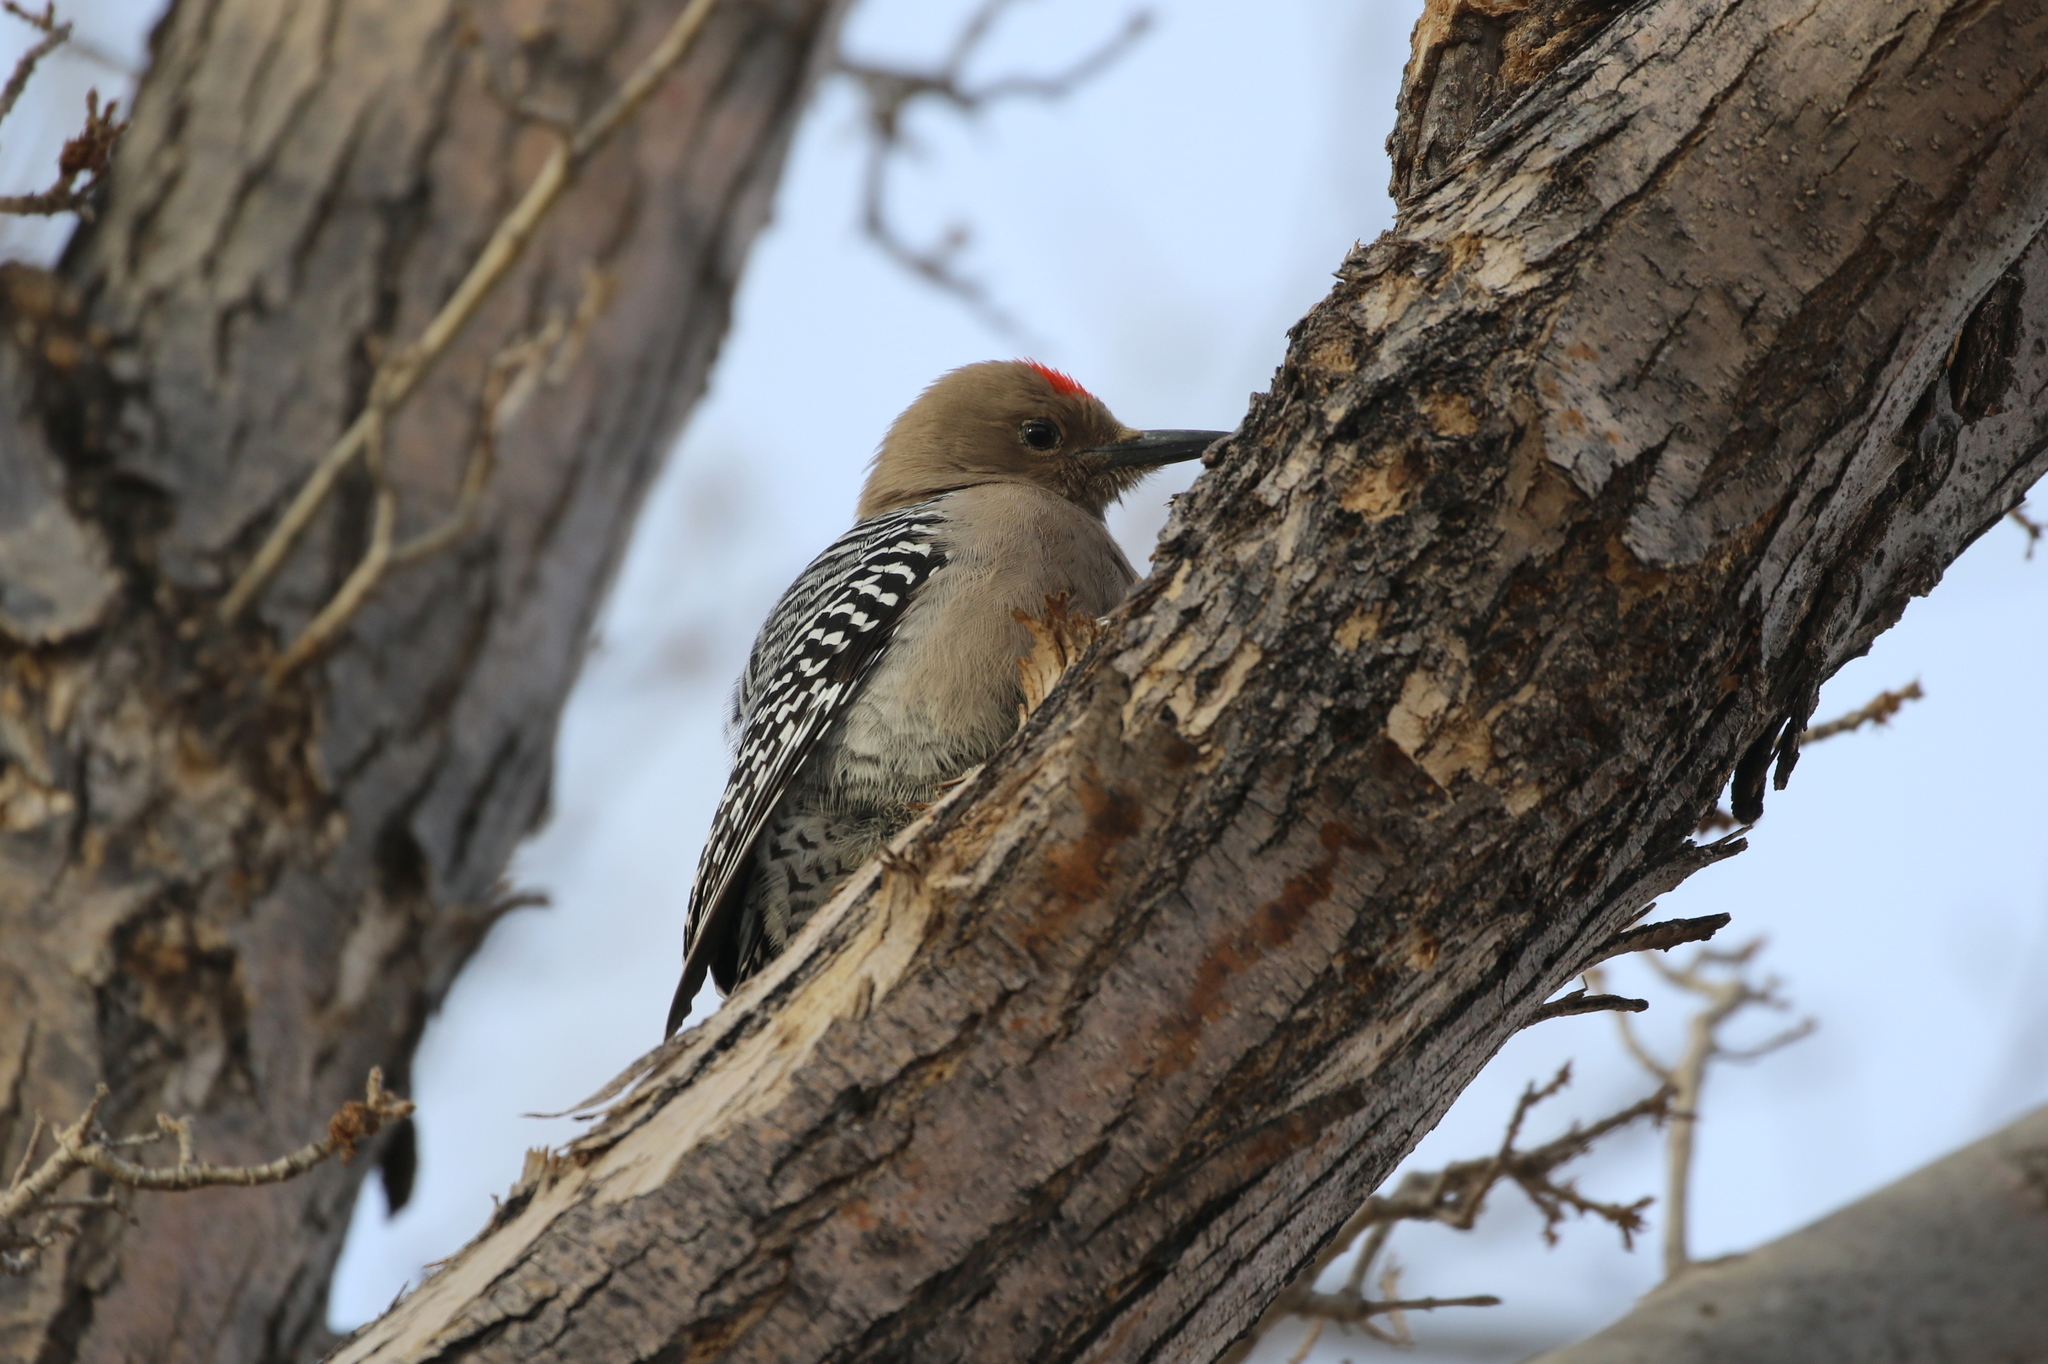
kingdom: Animalia
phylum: Chordata
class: Aves
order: Piciformes
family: Picidae
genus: Melanerpes
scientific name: Melanerpes uropygialis
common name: Gila woodpecker
